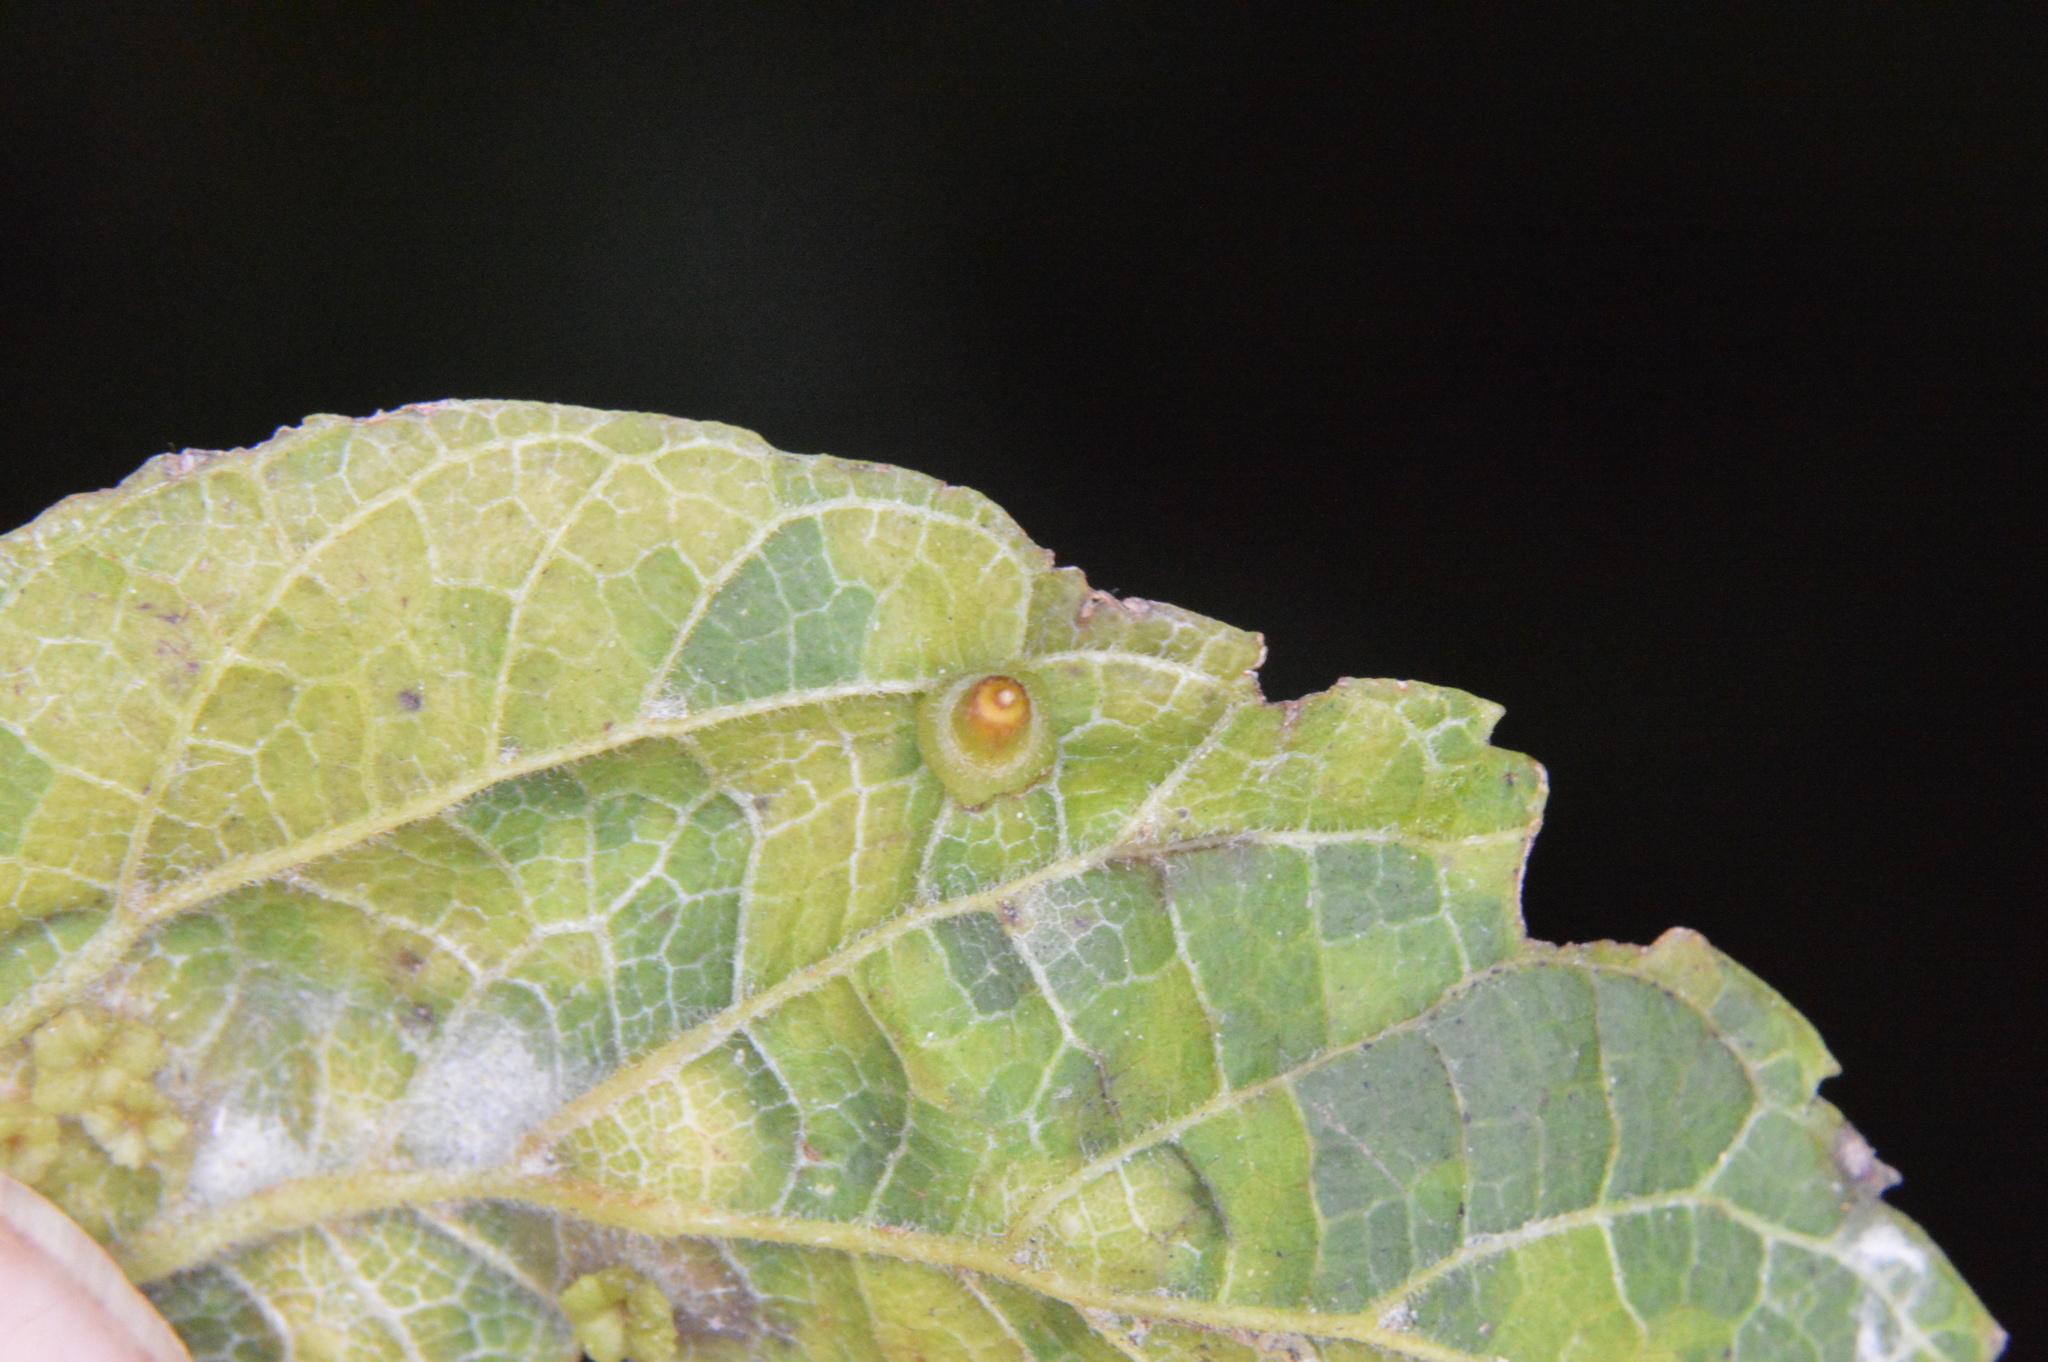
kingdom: Animalia
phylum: Arthropoda
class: Insecta
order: Diptera
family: Cecidomyiidae
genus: Celticecis
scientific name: Celticecis aciculata
